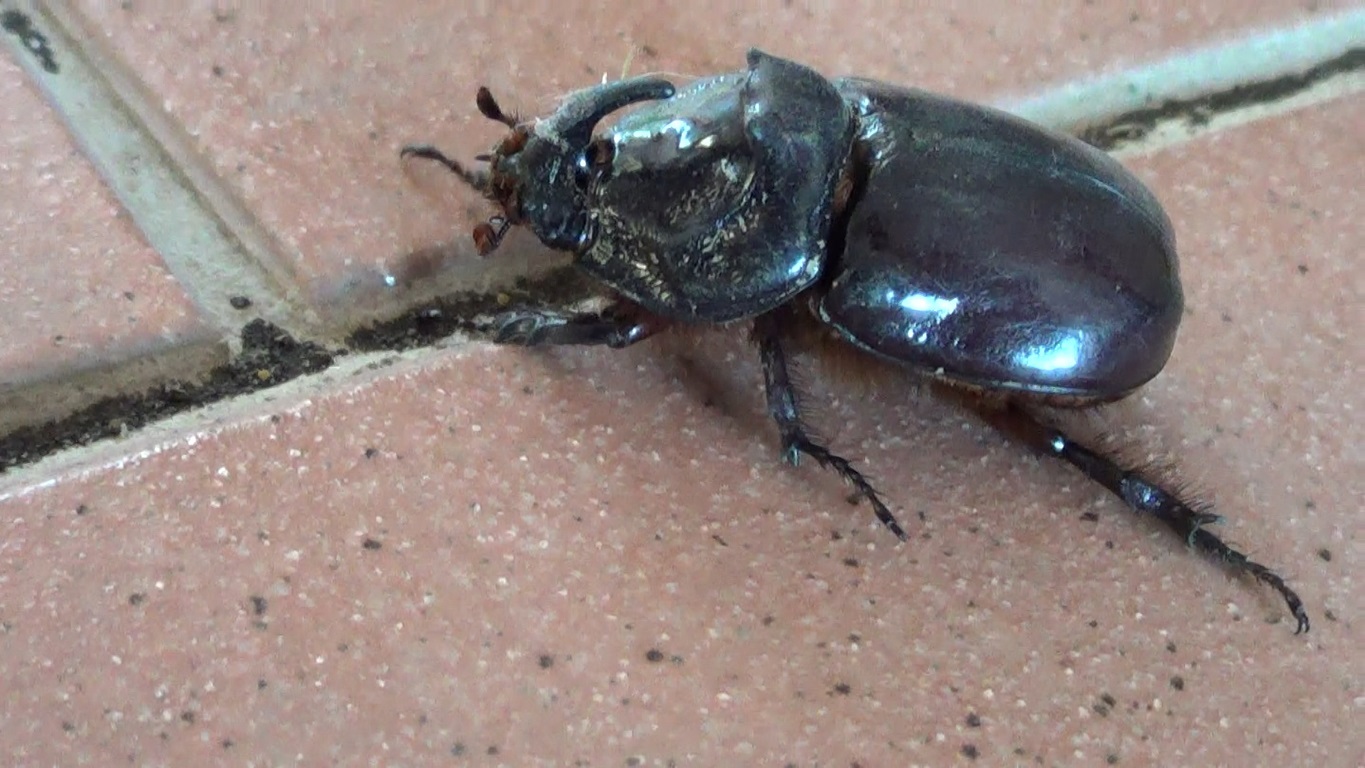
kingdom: Animalia
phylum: Arthropoda
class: Insecta
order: Coleoptera
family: Scarabaeidae
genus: Oryctes
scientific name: Oryctes nasicornis
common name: European rhinoceros beetle
